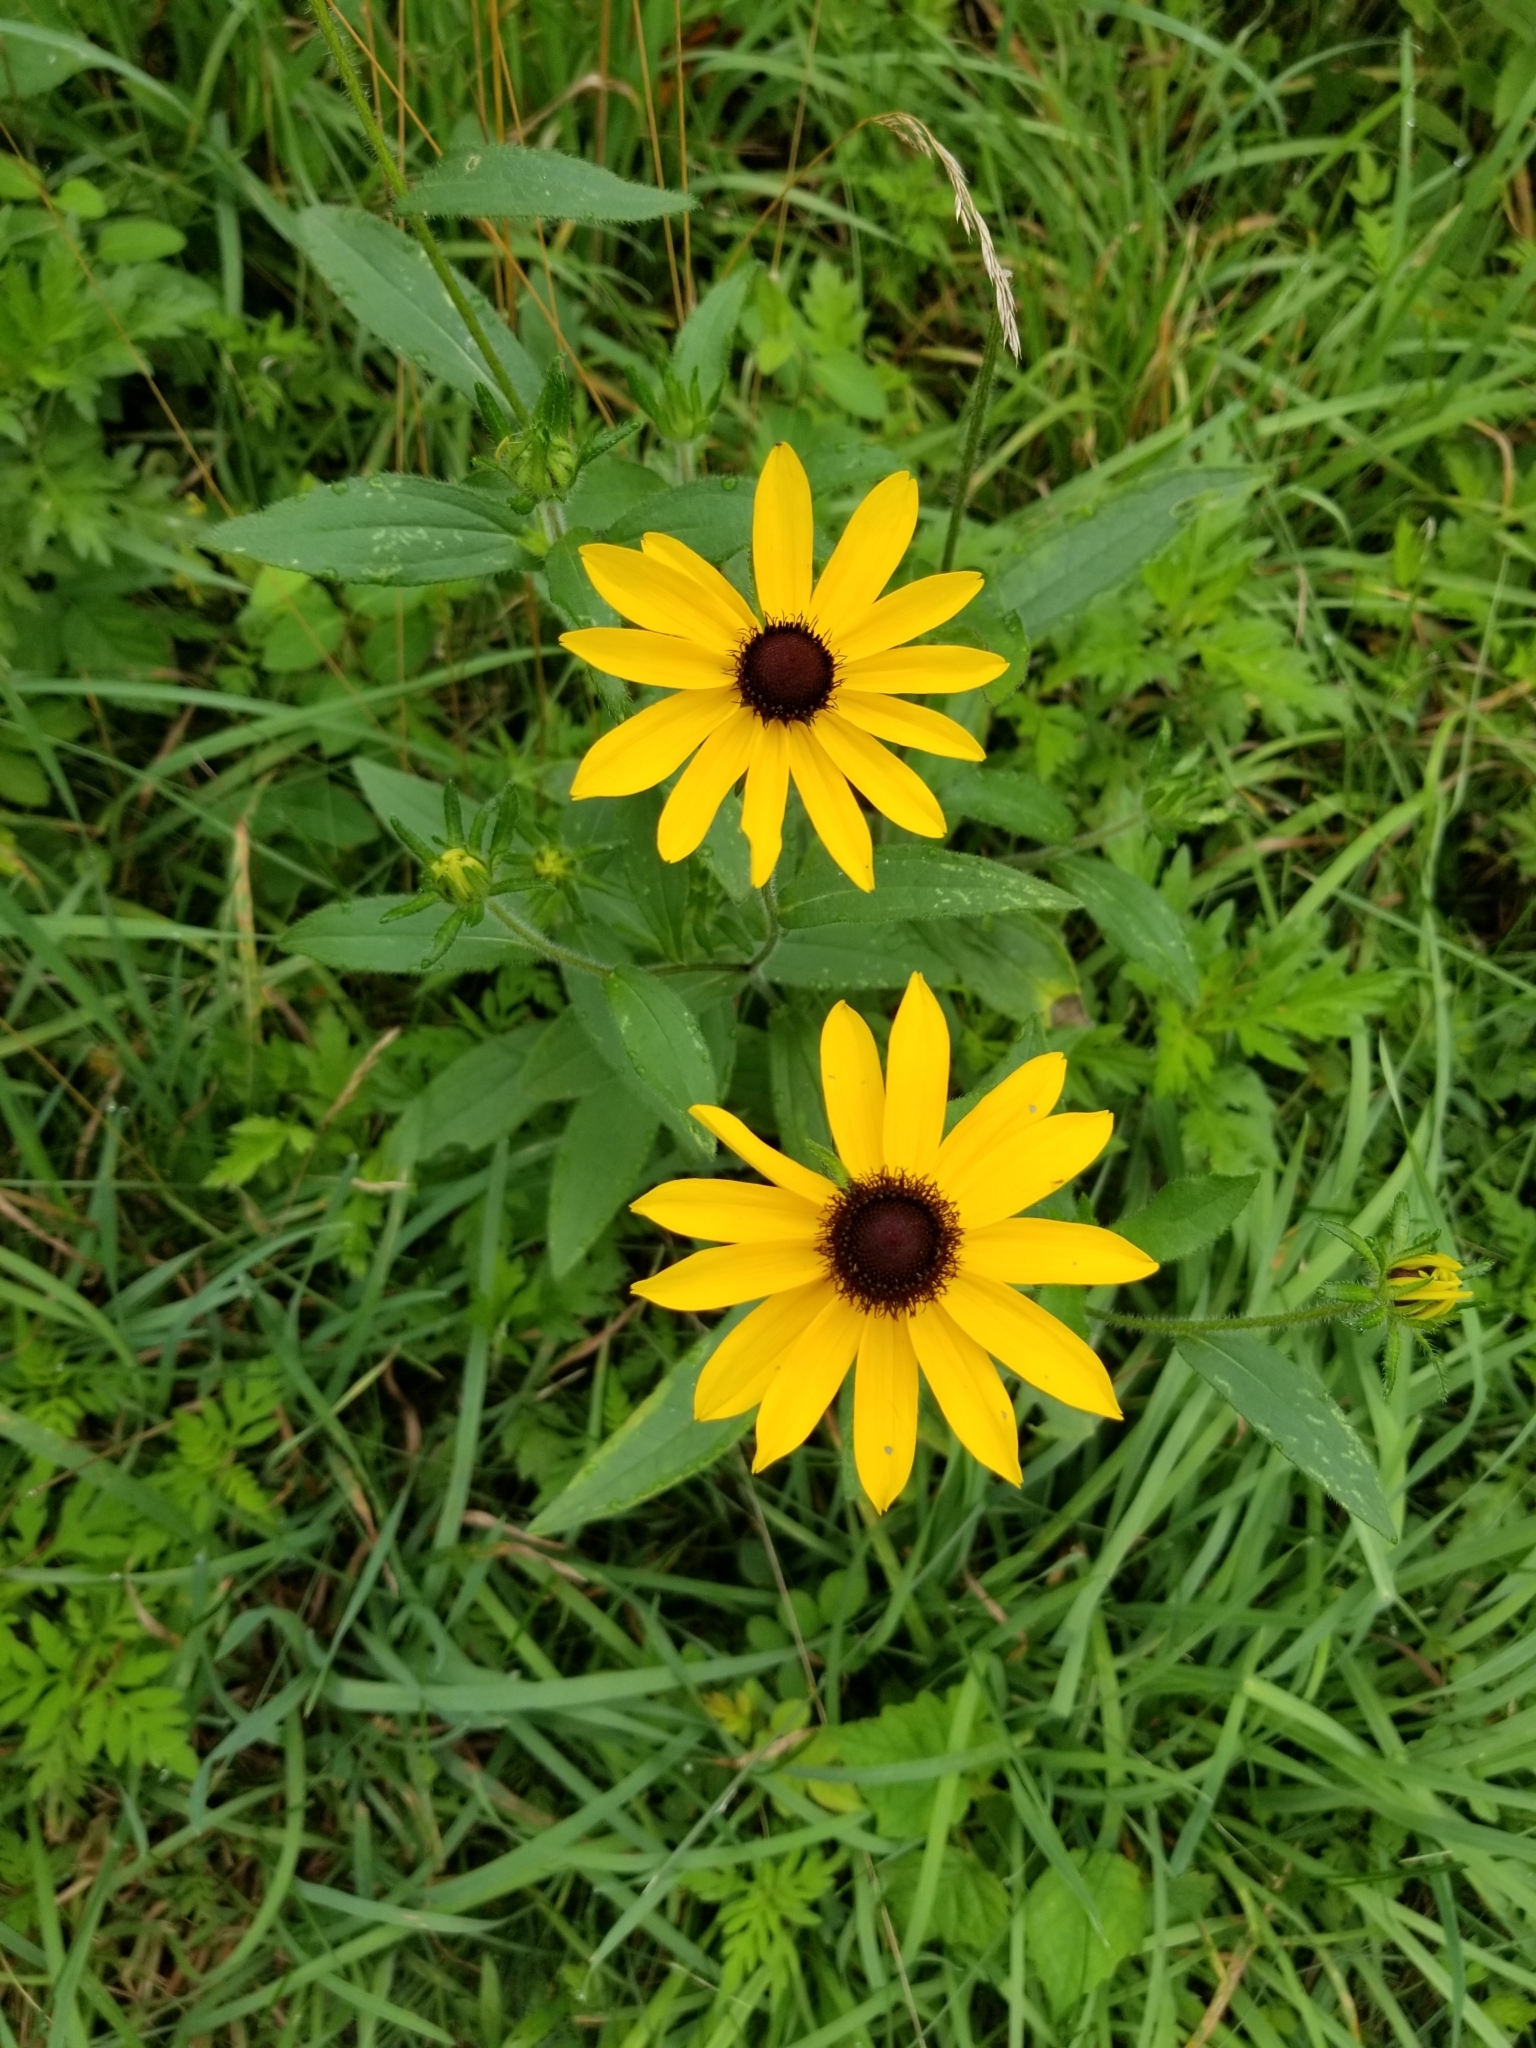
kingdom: Plantae
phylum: Tracheophyta
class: Magnoliopsida
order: Asterales
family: Asteraceae
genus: Rudbeckia
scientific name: Rudbeckia hirta
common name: Black-eyed-susan
